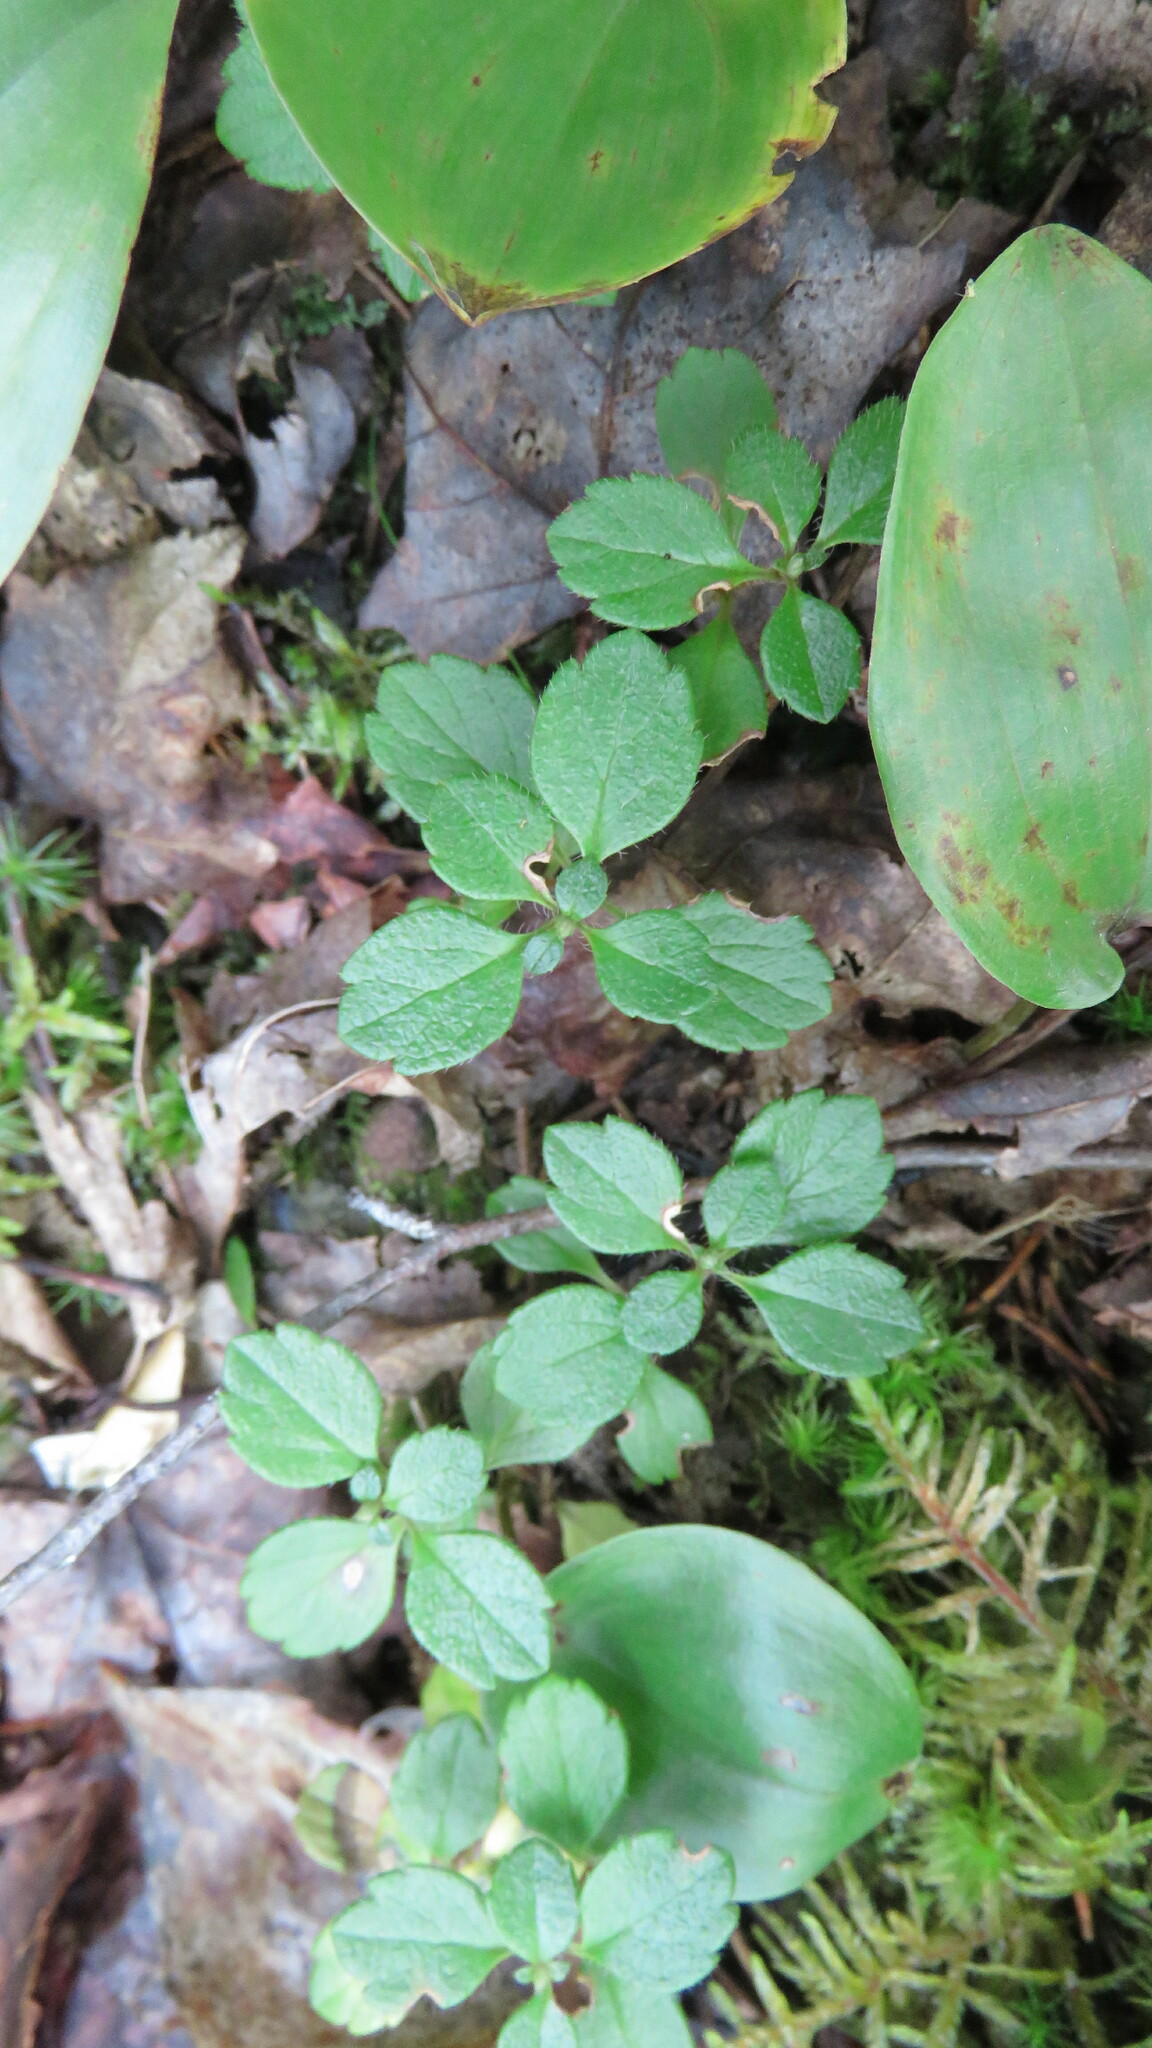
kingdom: Plantae
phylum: Tracheophyta
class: Magnoliopsida
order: Dipsacales
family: Caprifoliaceae
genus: Linnaea
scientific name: Linnaea borealis
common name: Twinflower
